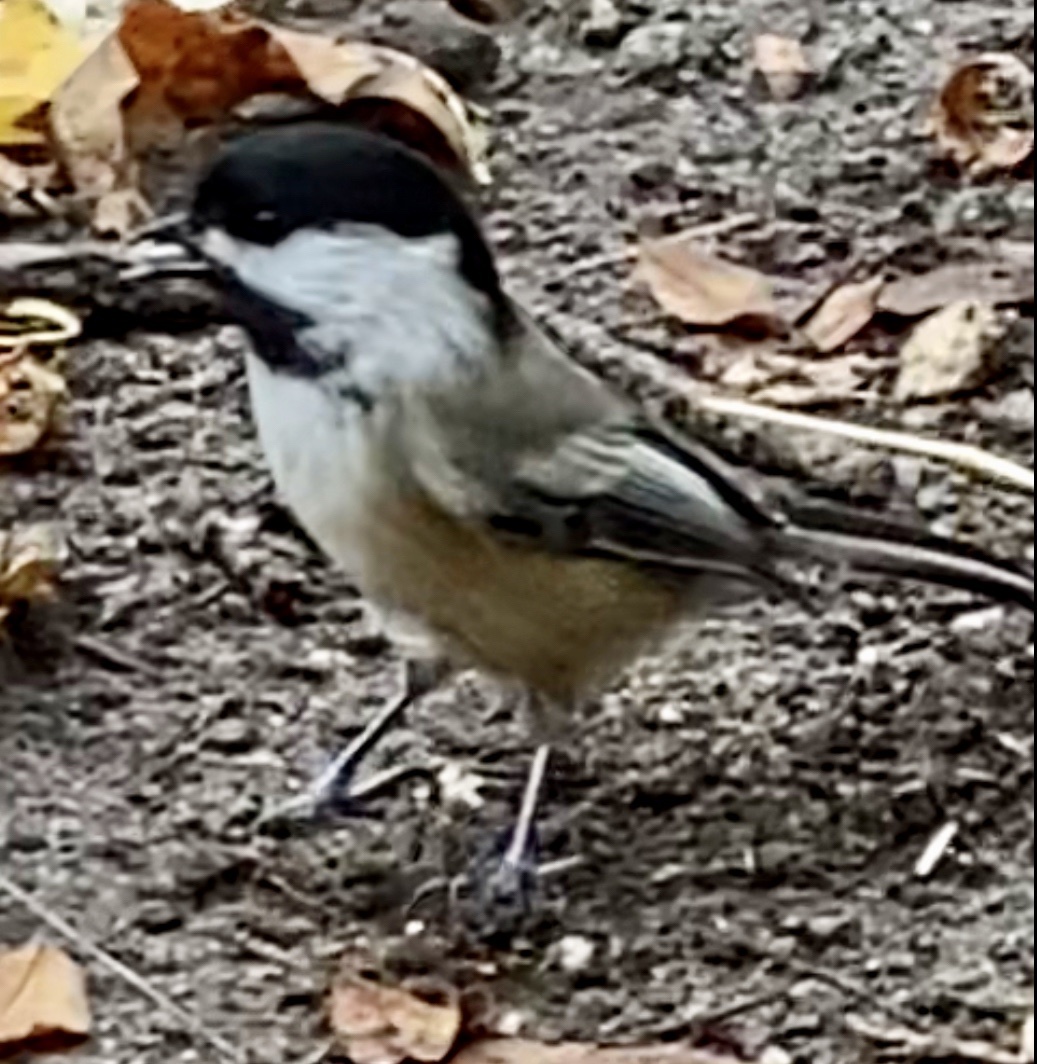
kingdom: Animalia
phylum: Chordata
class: Aves
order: Passeriformes
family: Paridae
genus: Poecile
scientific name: Poecile atricapillus
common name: Black-capped chickadee
